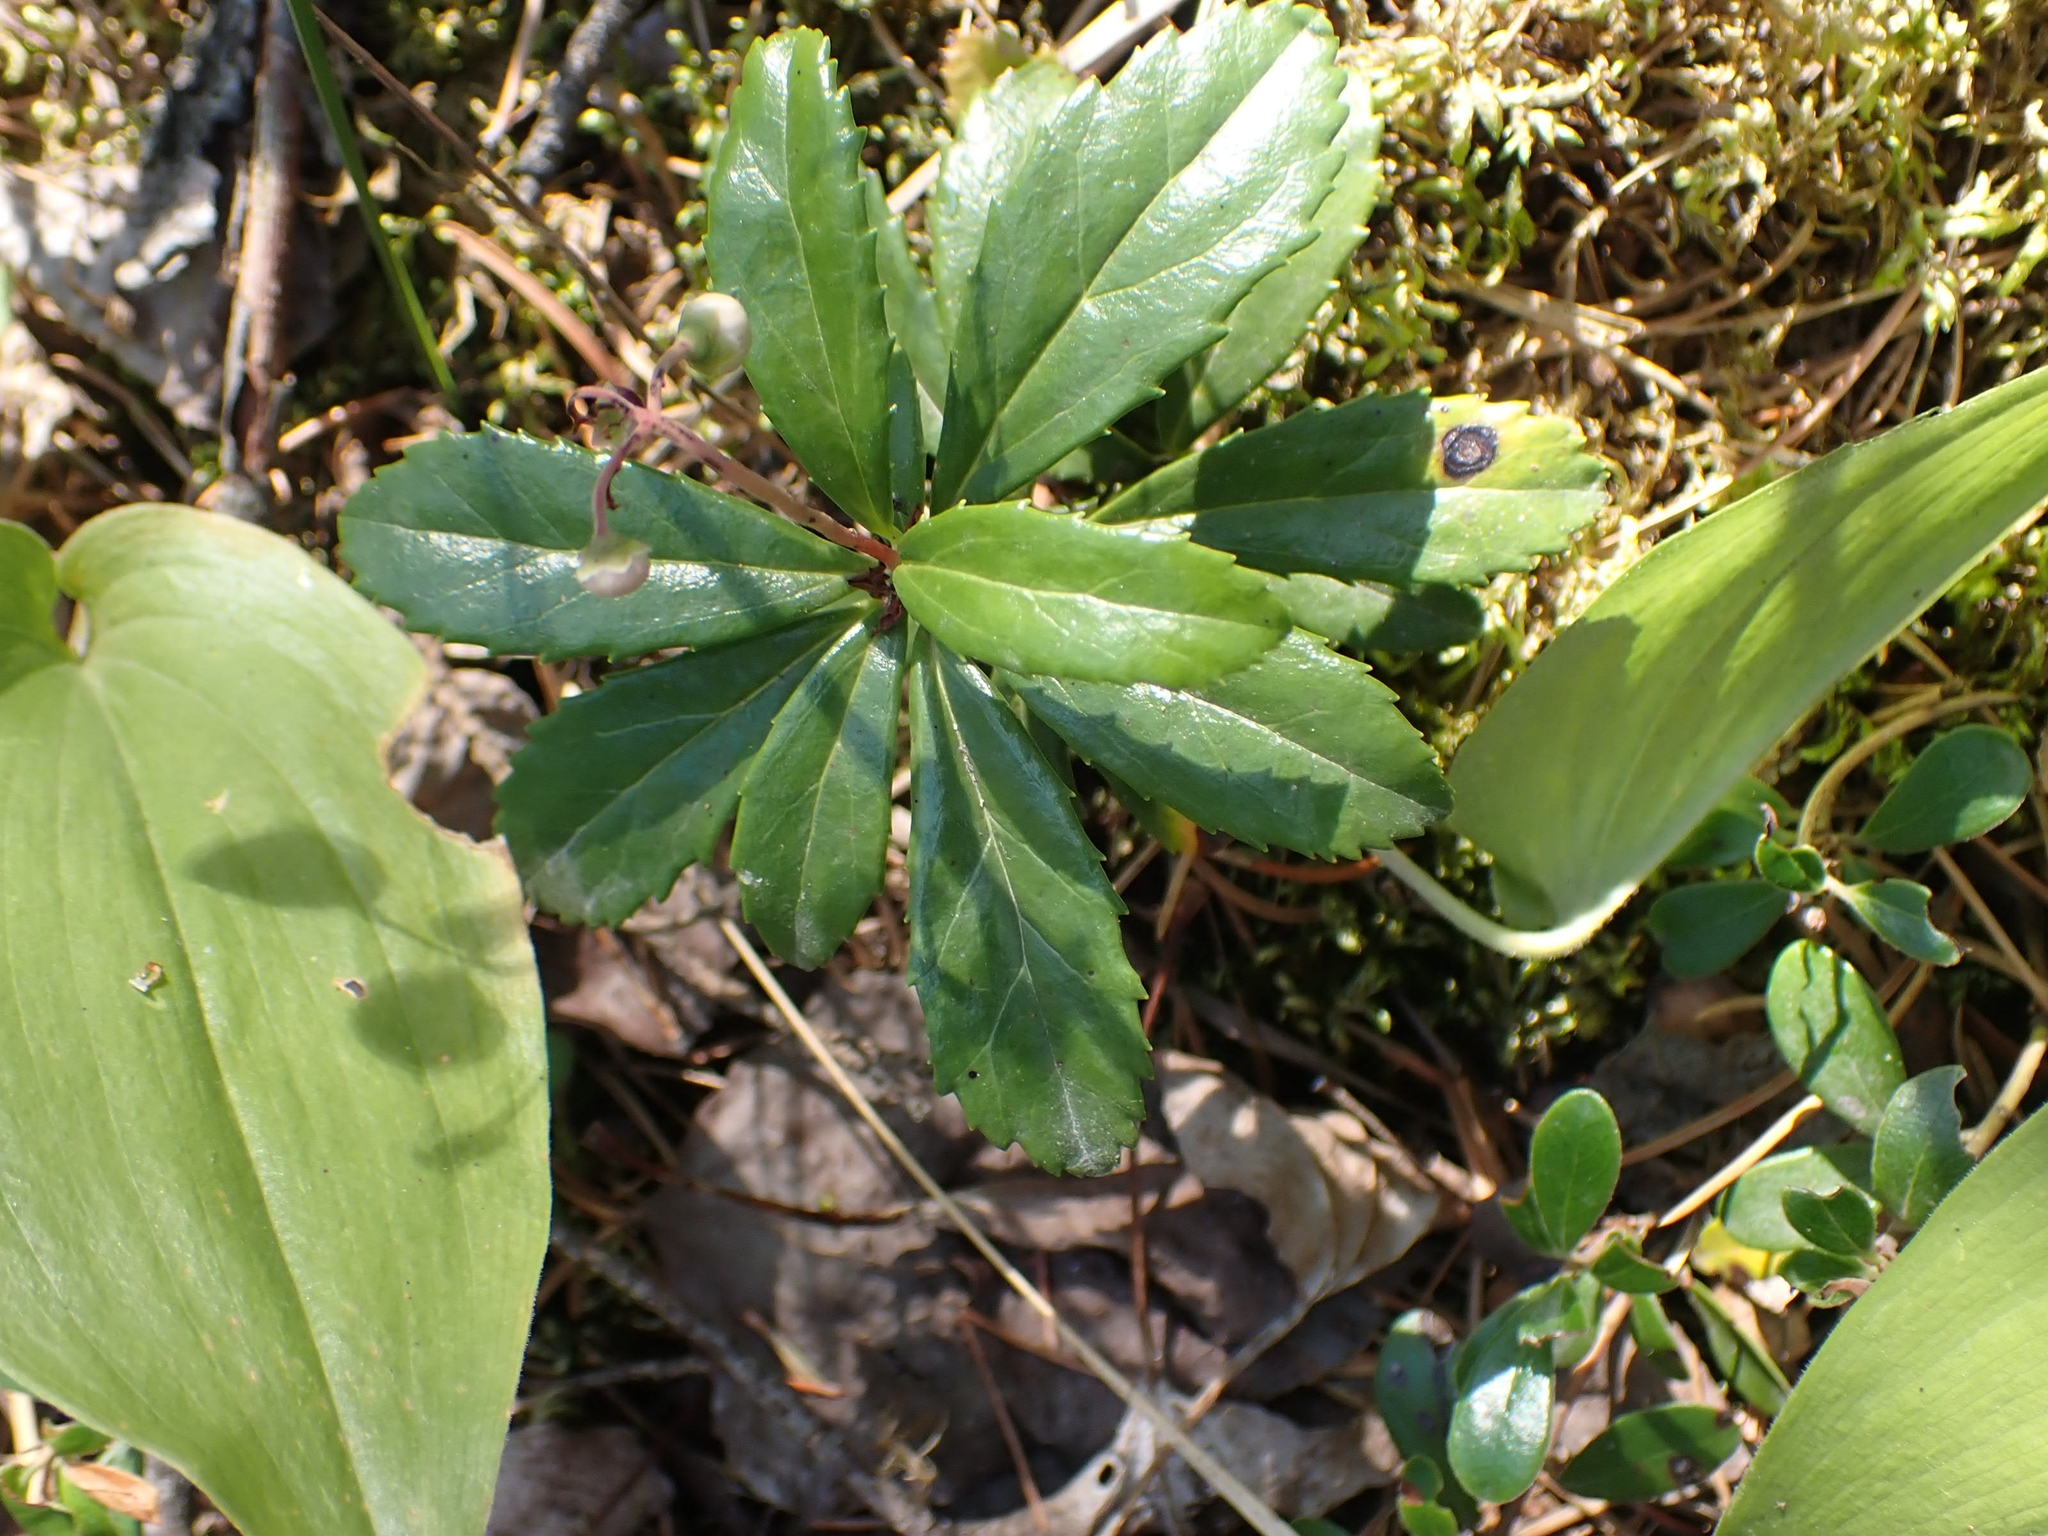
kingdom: Plantae
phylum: Tracheophyta
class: Magnoliopsida
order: Ericales
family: Ericaceae
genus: Chimaphila
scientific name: Chimaphila umbellata
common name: Pipsissewa
